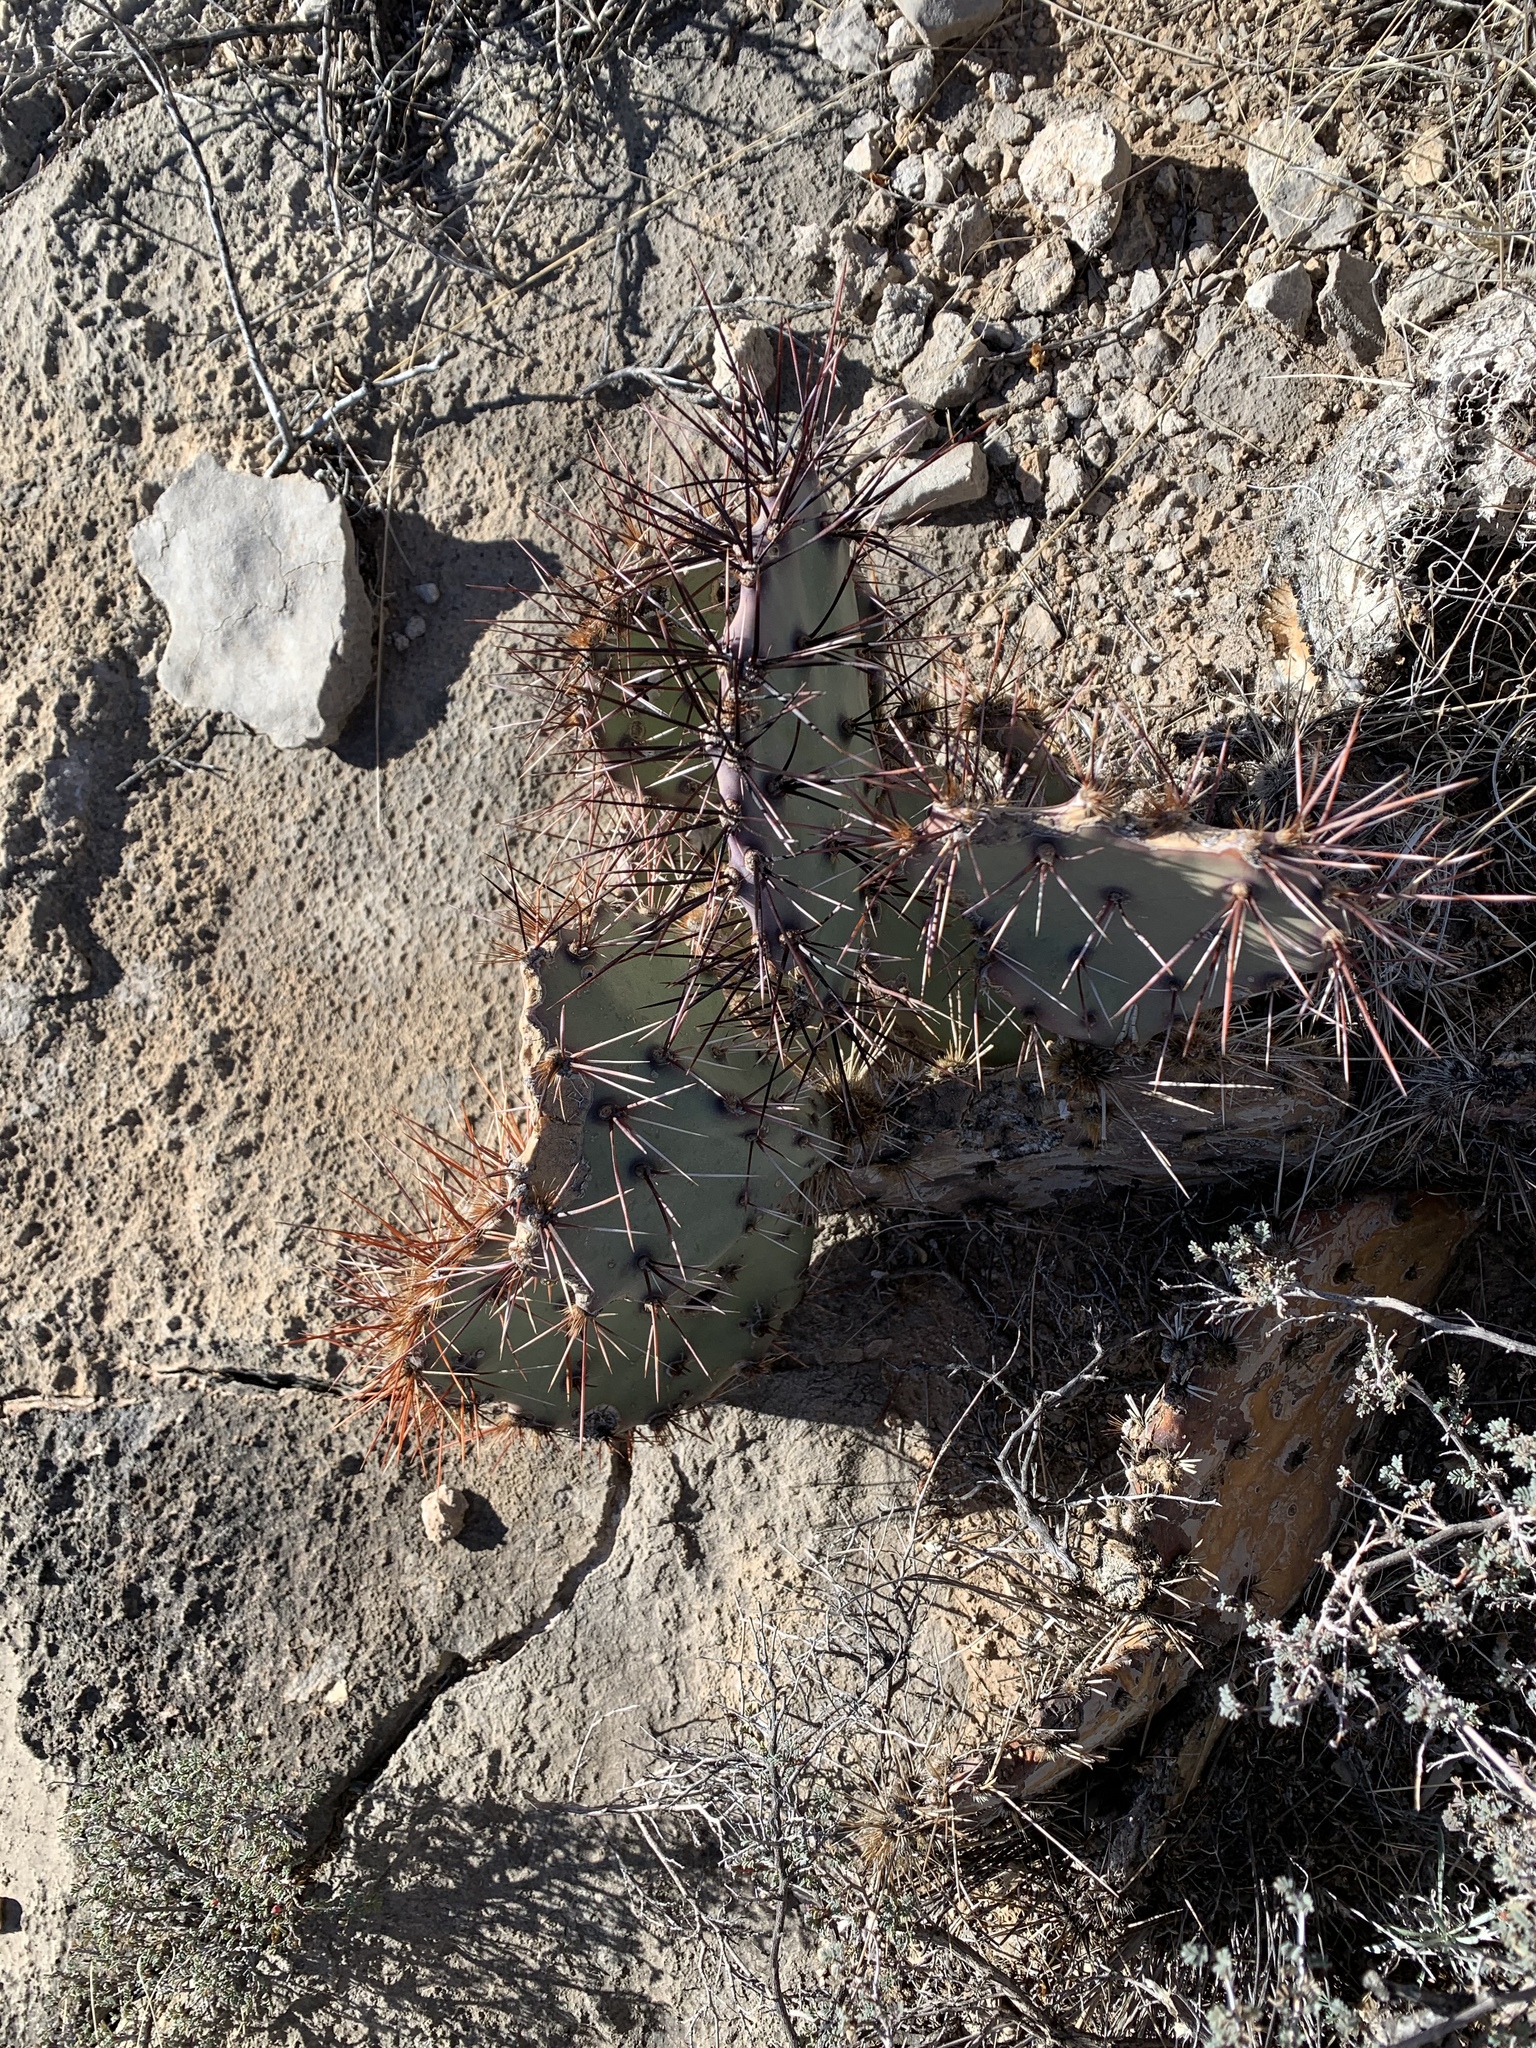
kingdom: Plantae
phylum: Tracheophyta
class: Magnoliopsida
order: Caryophyllales
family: Cactaceae
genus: Opuntia
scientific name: Opuntia macrocentra
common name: Purple prickly-pear
